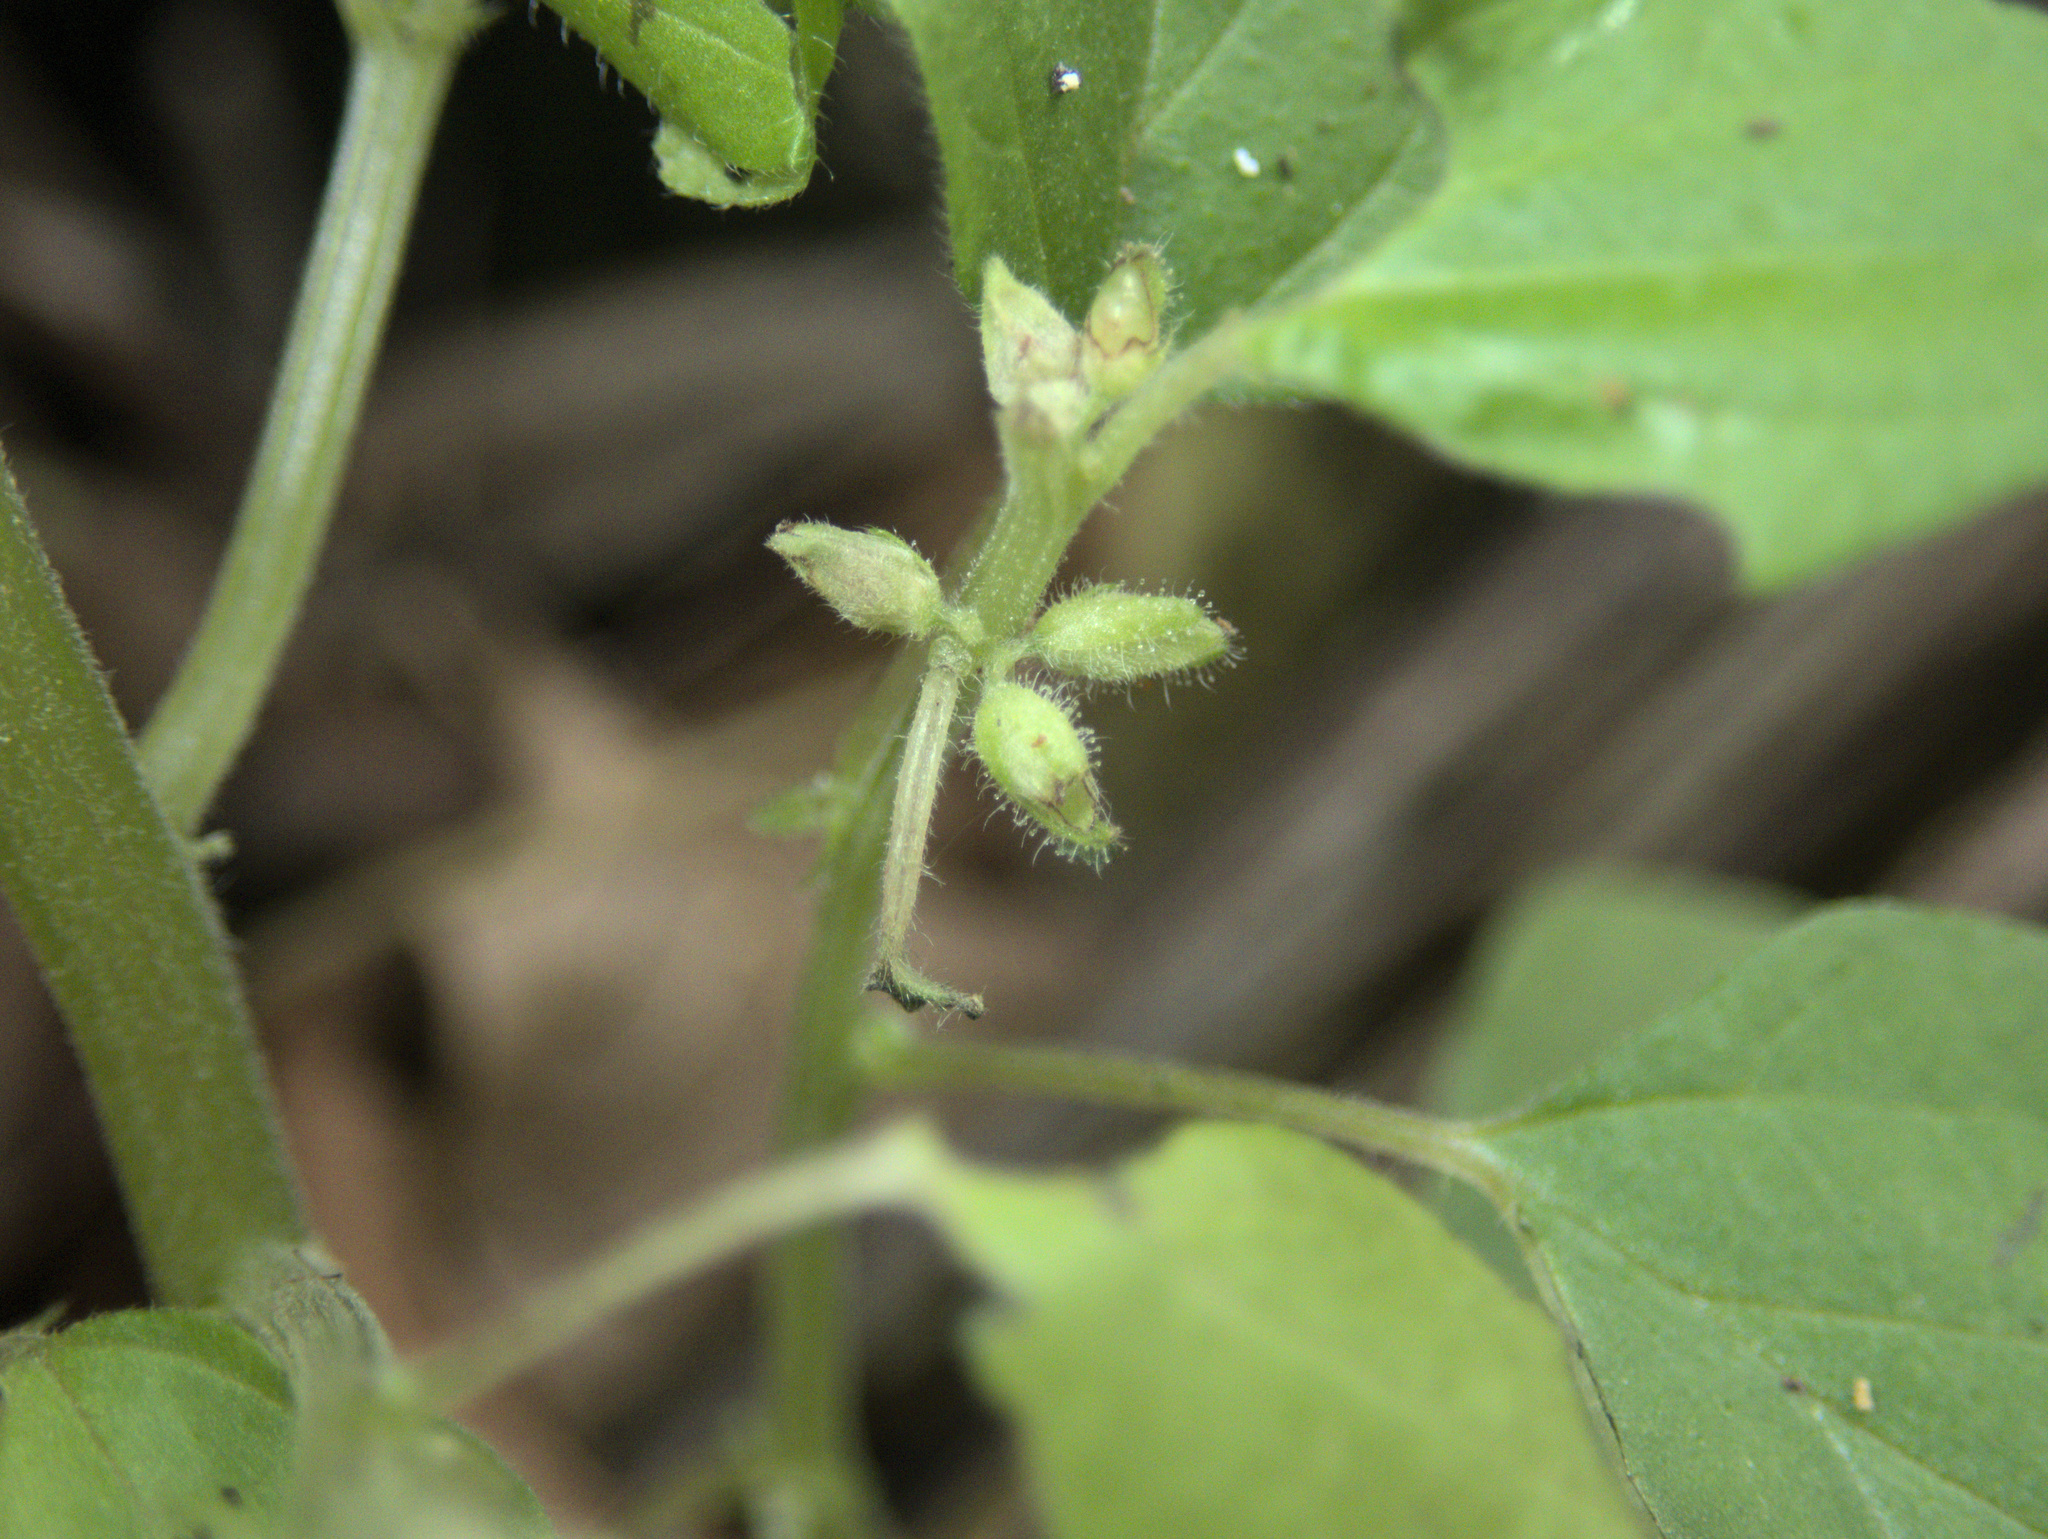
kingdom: Plantae
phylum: Tracheophyta
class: Magnoliopsida
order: Rosales
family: Urticaceae
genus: Parietaria
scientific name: Parietaria debilis
